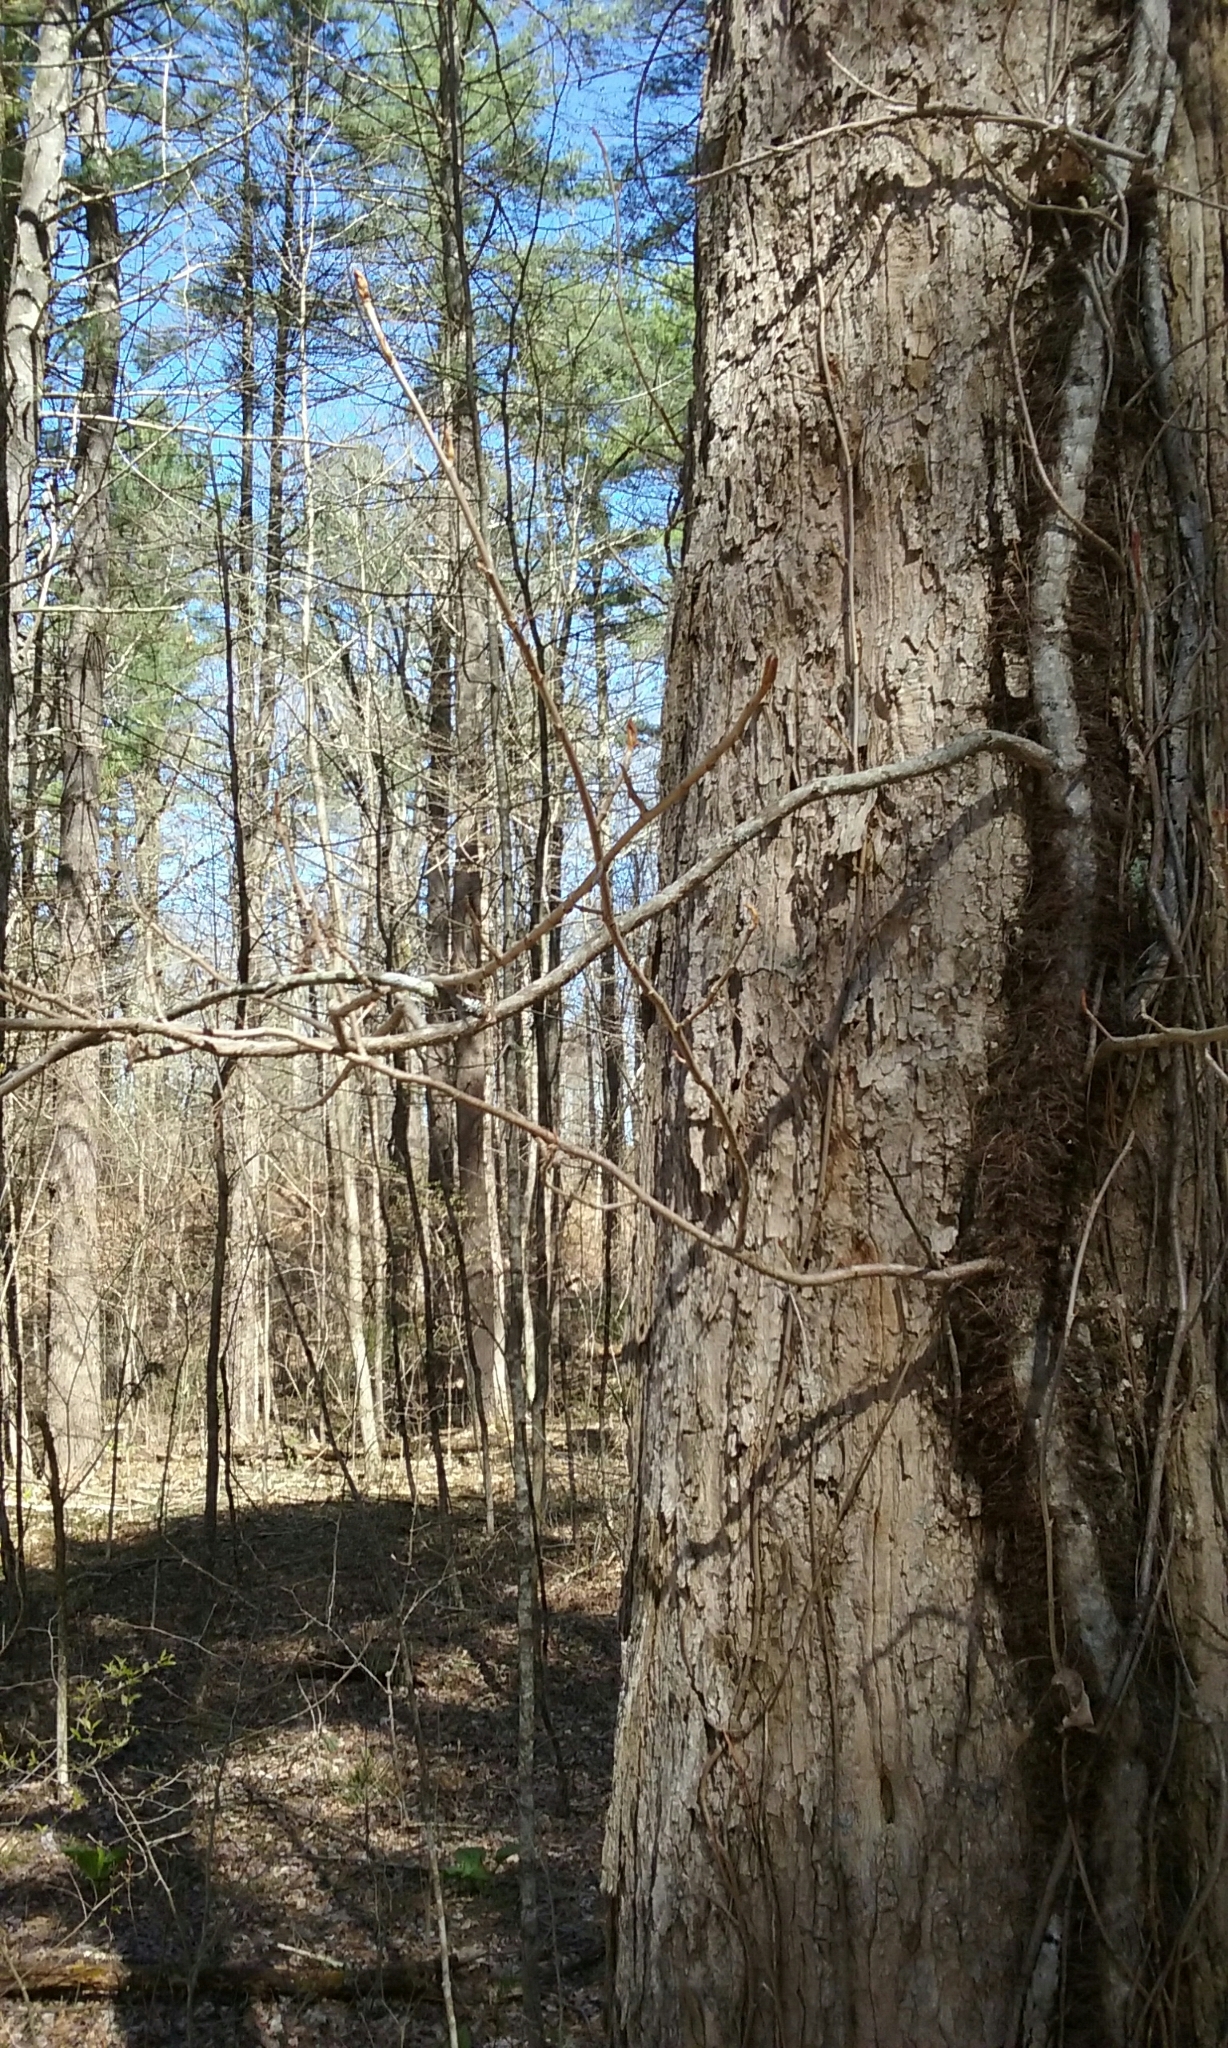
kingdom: Plantae
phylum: Tracheophyta
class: Magnoliopsida
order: Sapindales
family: Anacardiaceae
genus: Toxicodendron
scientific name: Toxicodendron radicans
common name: Poison ivy
